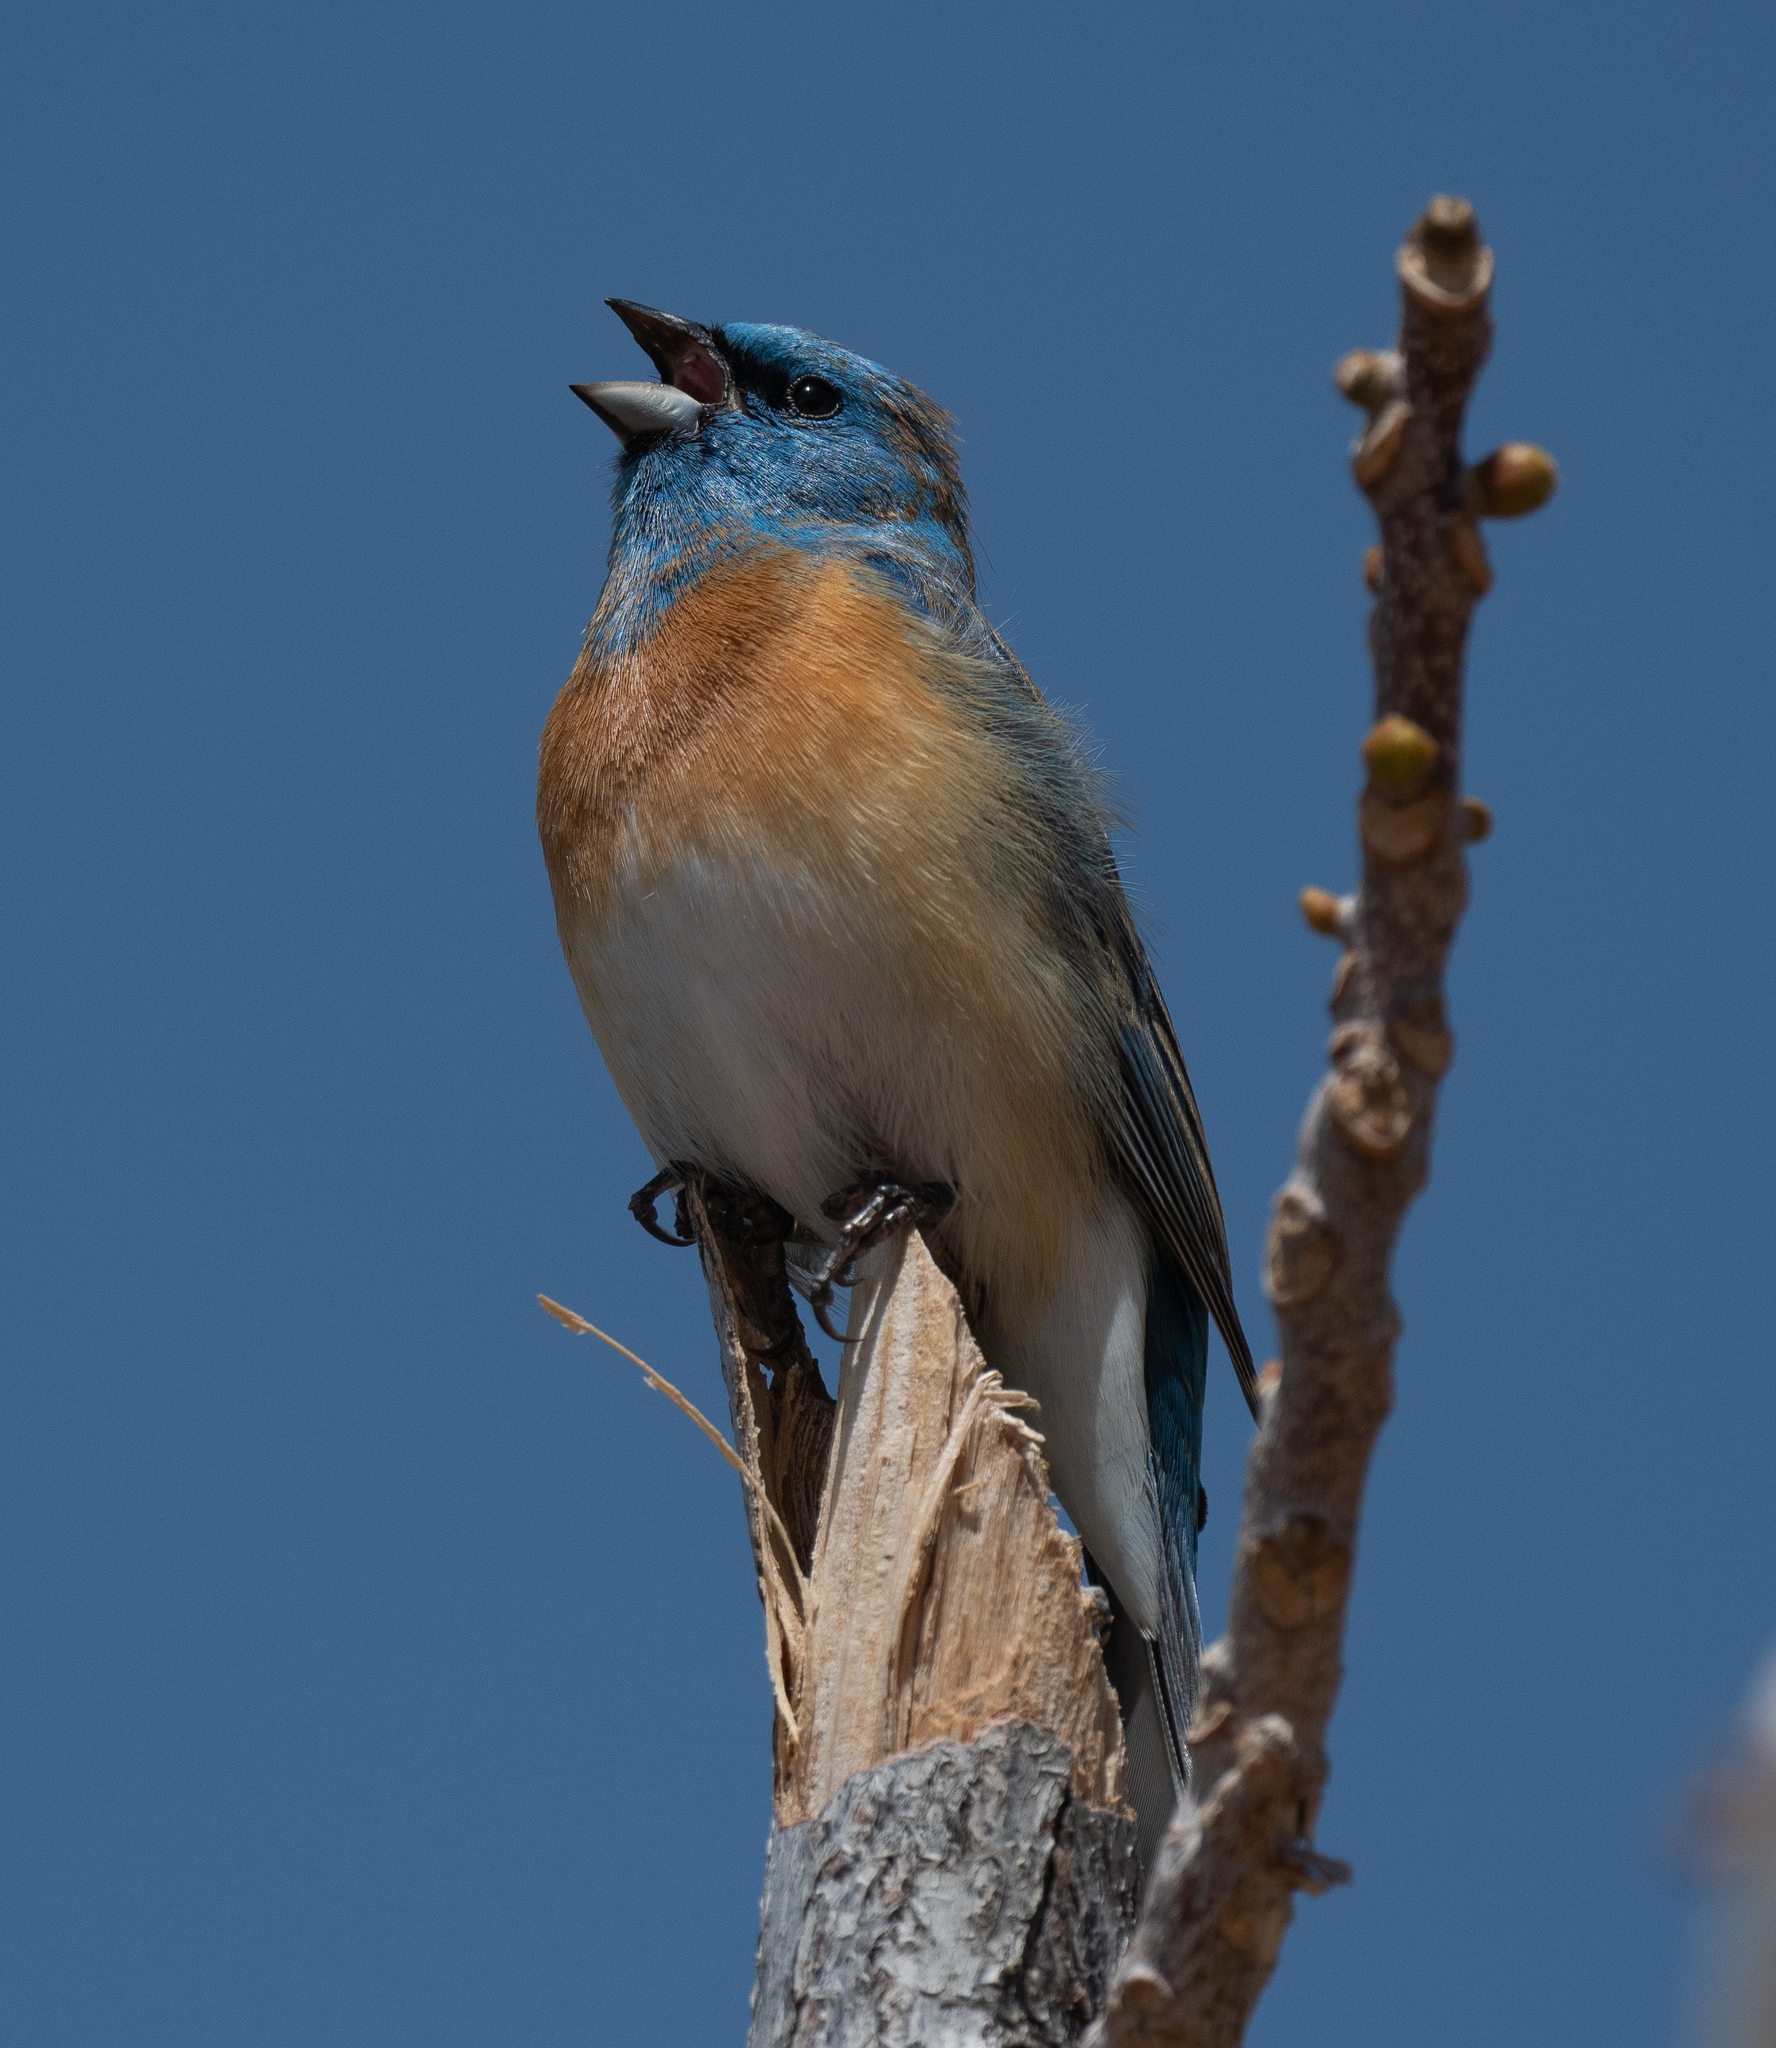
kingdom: Animalia
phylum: Chordata
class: Aves
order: Passeriformes
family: Cardinalidae
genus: Passerina
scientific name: Passerina amoena
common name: Lazuli bunting
